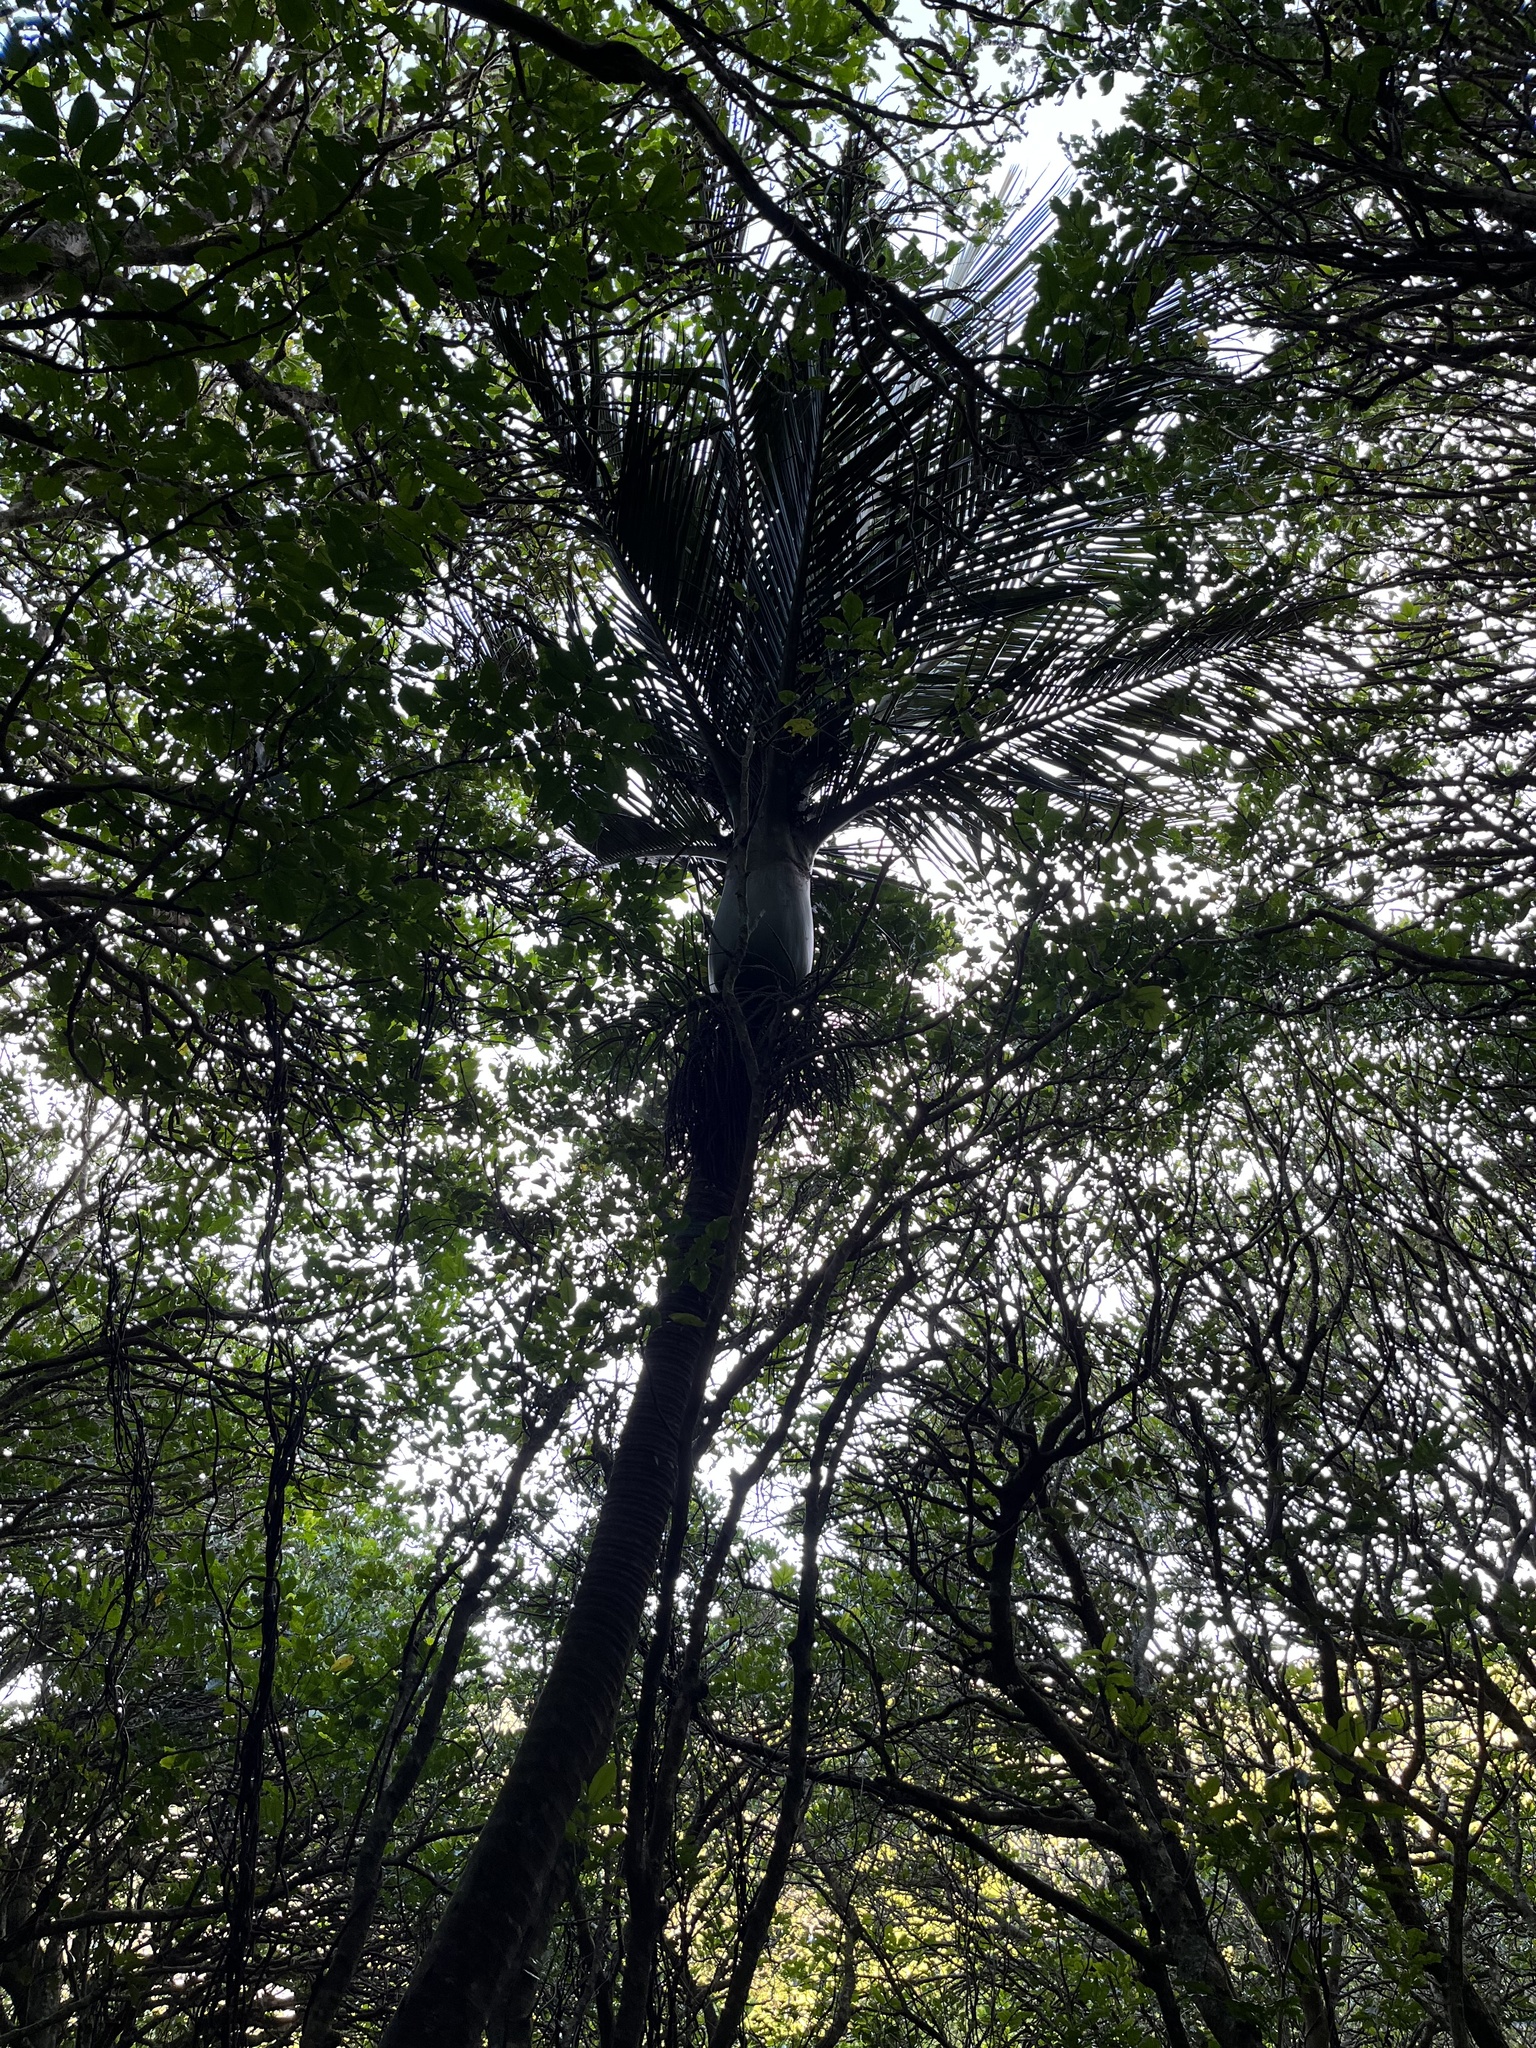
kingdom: Plantae
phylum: Tracheophyta
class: Liliopsida
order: Arecales
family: Arecaceae
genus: Rhopalostylis
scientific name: Rhopalostylis sapida
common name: Feather-duster palm
